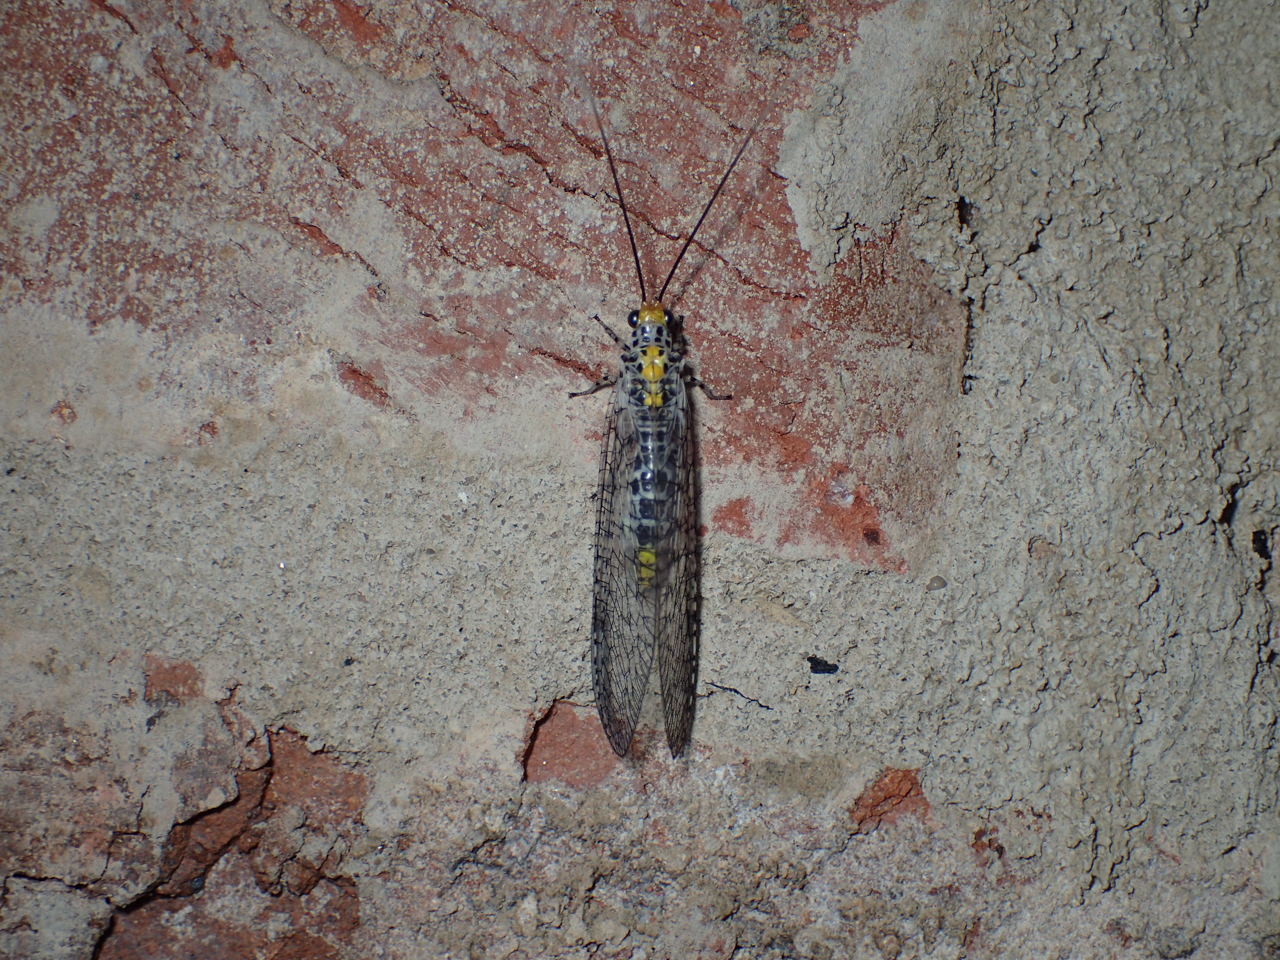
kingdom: Animalia
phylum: Arthropoda
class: Insecta
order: Neuroptera
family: Chrysopidae
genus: Abachrysa
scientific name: Abachrysa eureka
